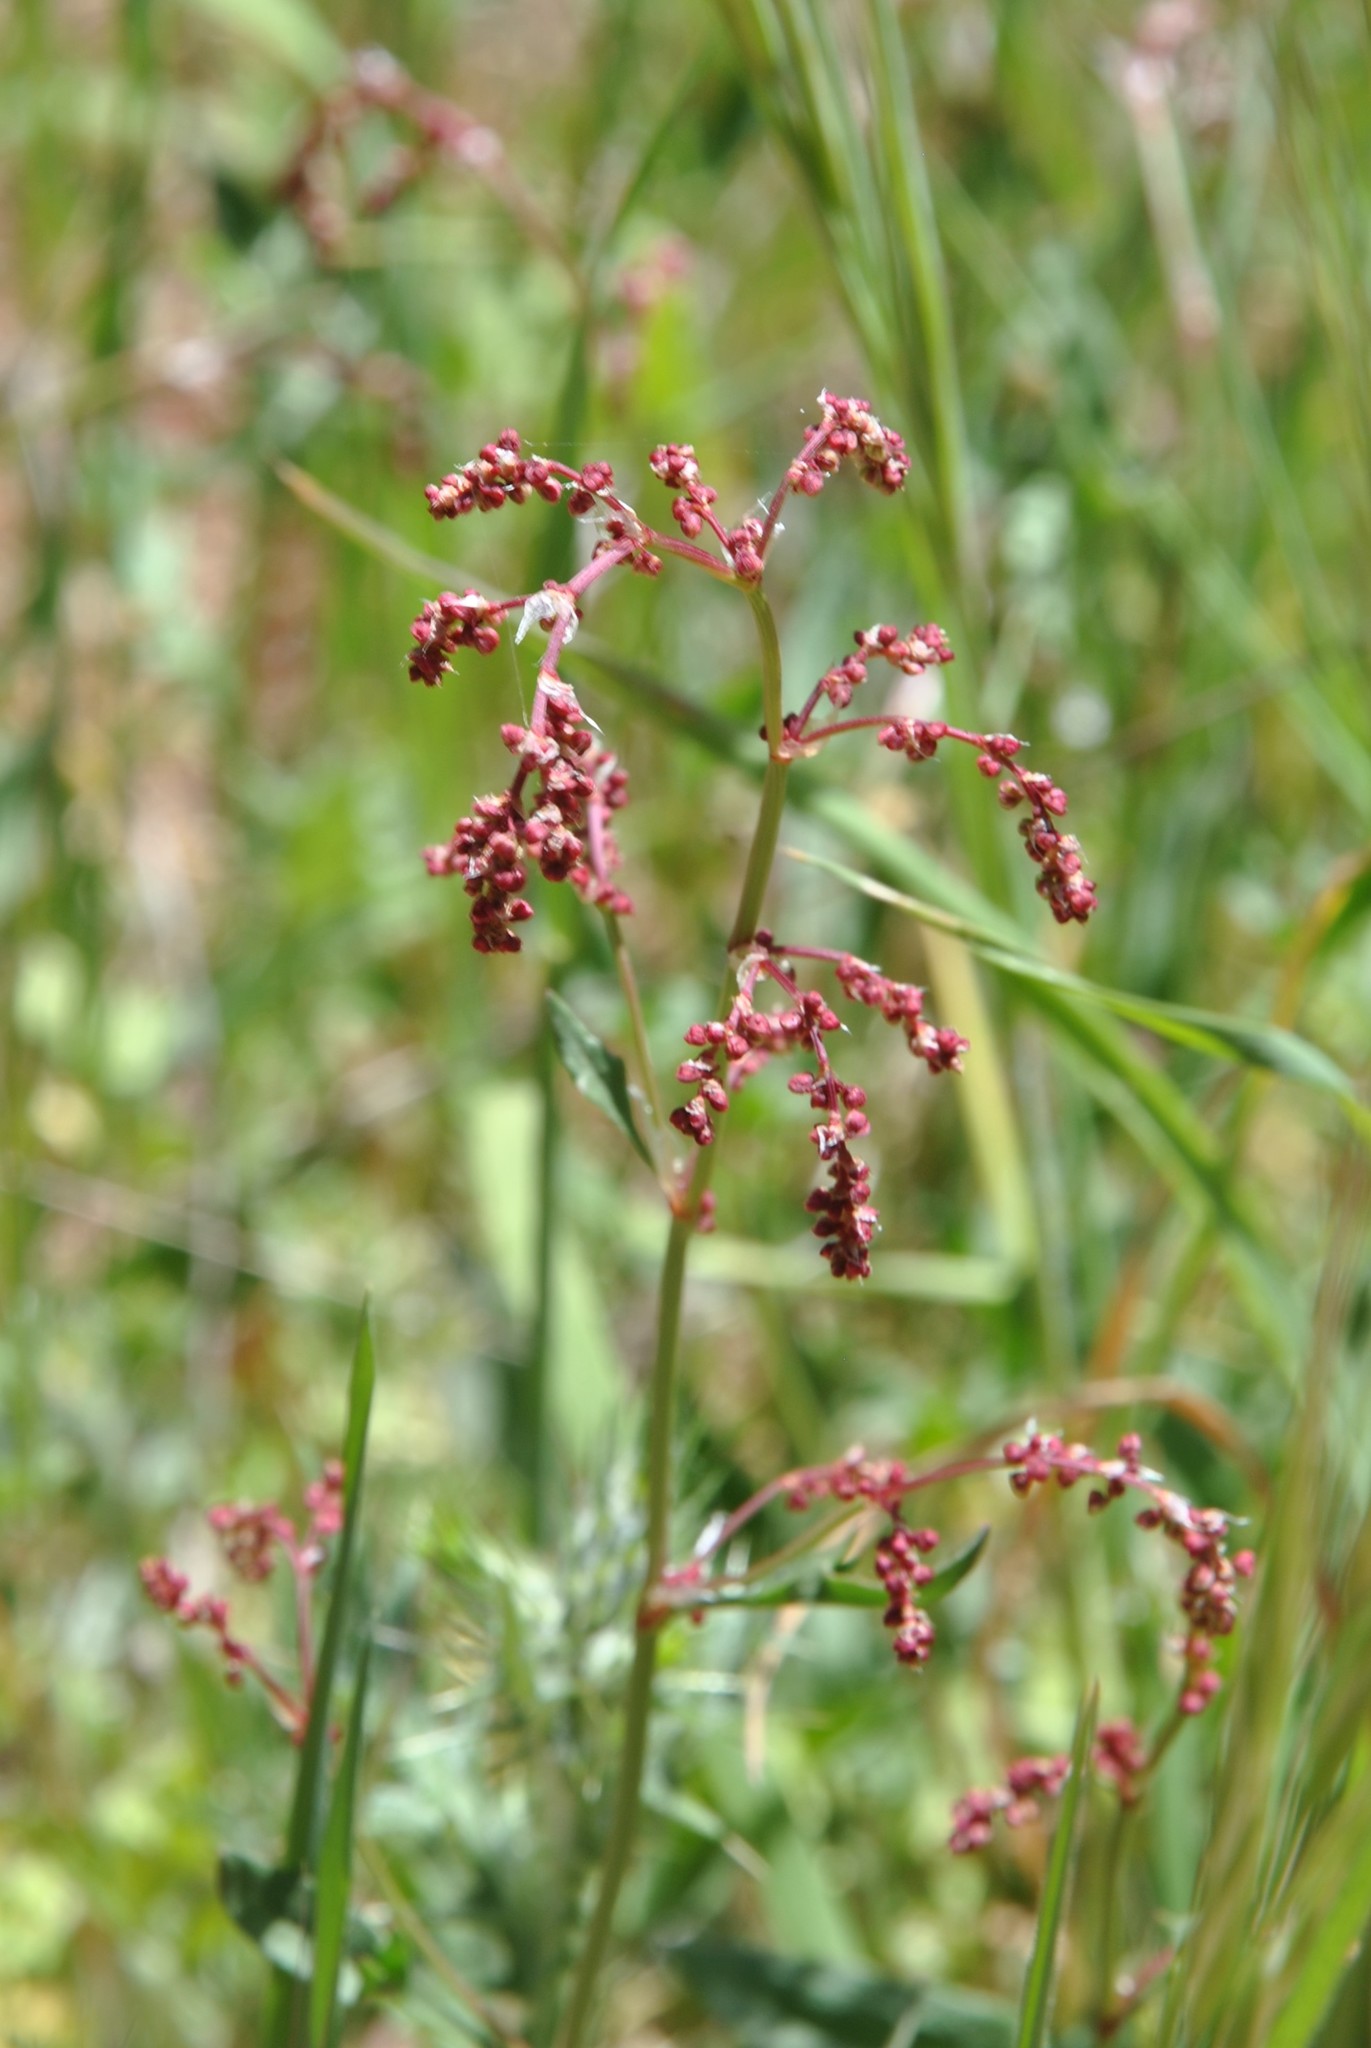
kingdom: Plantae
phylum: Tracheophyta
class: Magnoliopsida
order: Caryophyllales
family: Polygonaceae
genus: Rumex
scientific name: Rumex acetosella
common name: Common sheep sorrel
